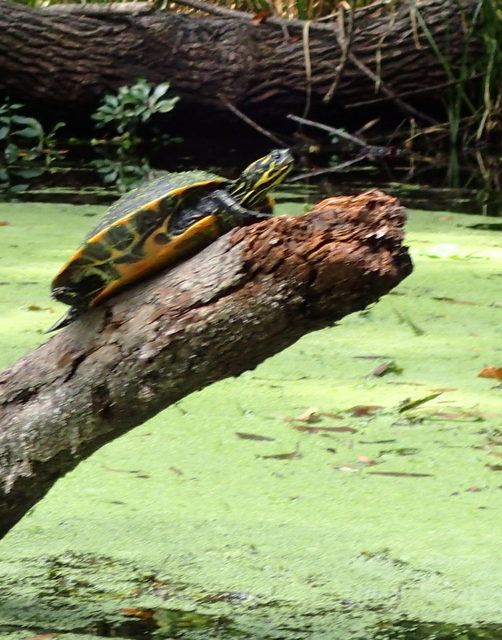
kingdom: Animalia
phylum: Chordata
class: Testudines
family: Emydidae
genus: Pseudemys
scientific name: Pseudemys concinna
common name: Eastern river cooter
